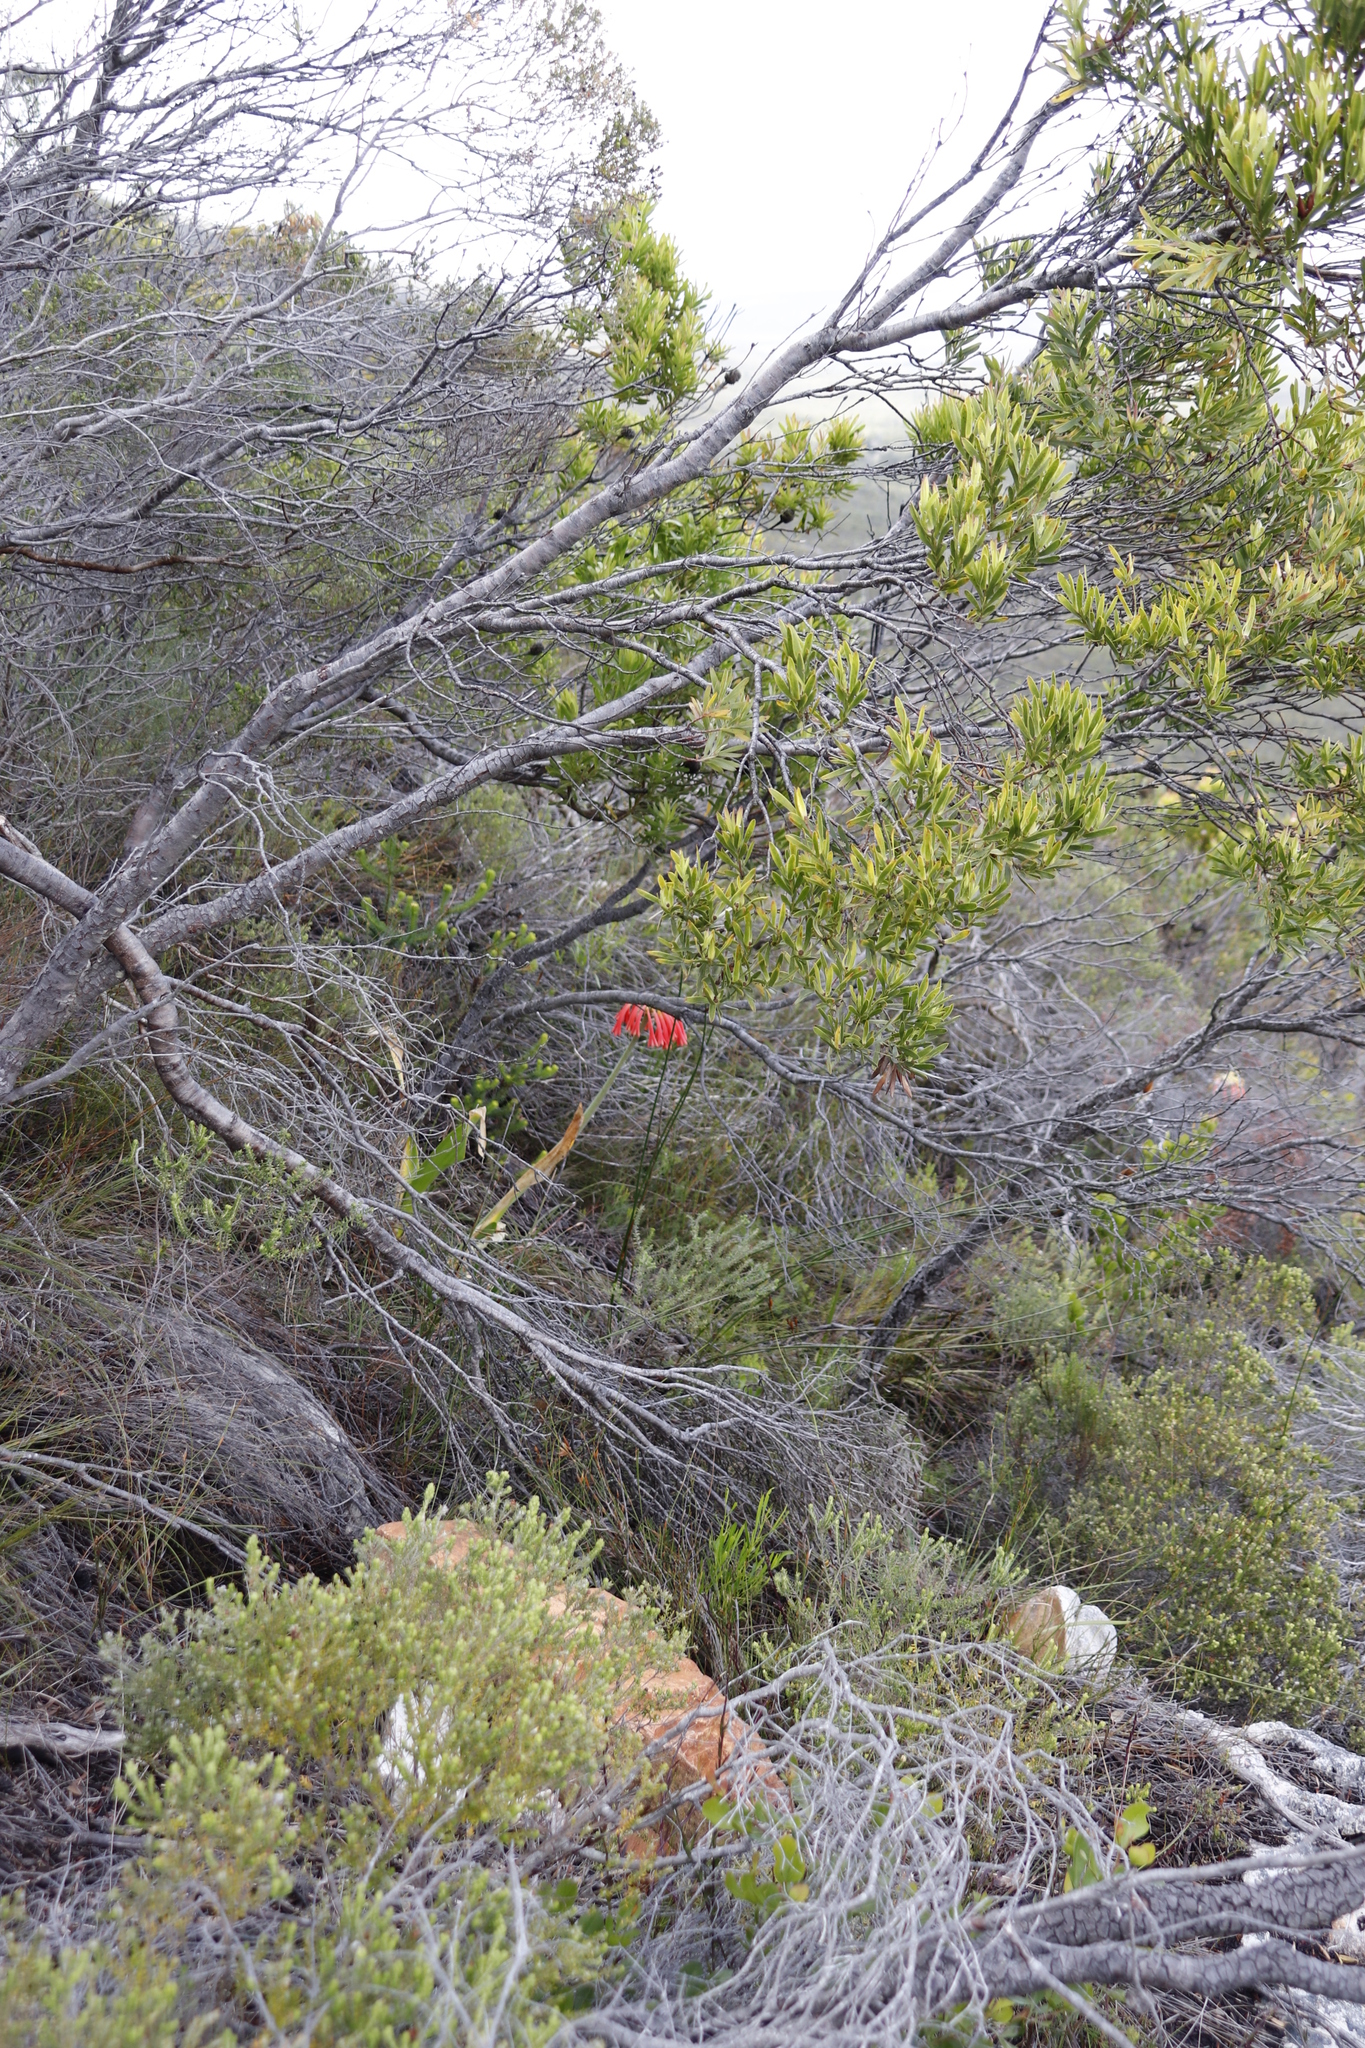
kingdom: Plantae
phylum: Tracheophyta
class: Liliopsida
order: Asparagales
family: Amaryllidaceae
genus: Cyrtanthus
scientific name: Cyrtanthus carneus
